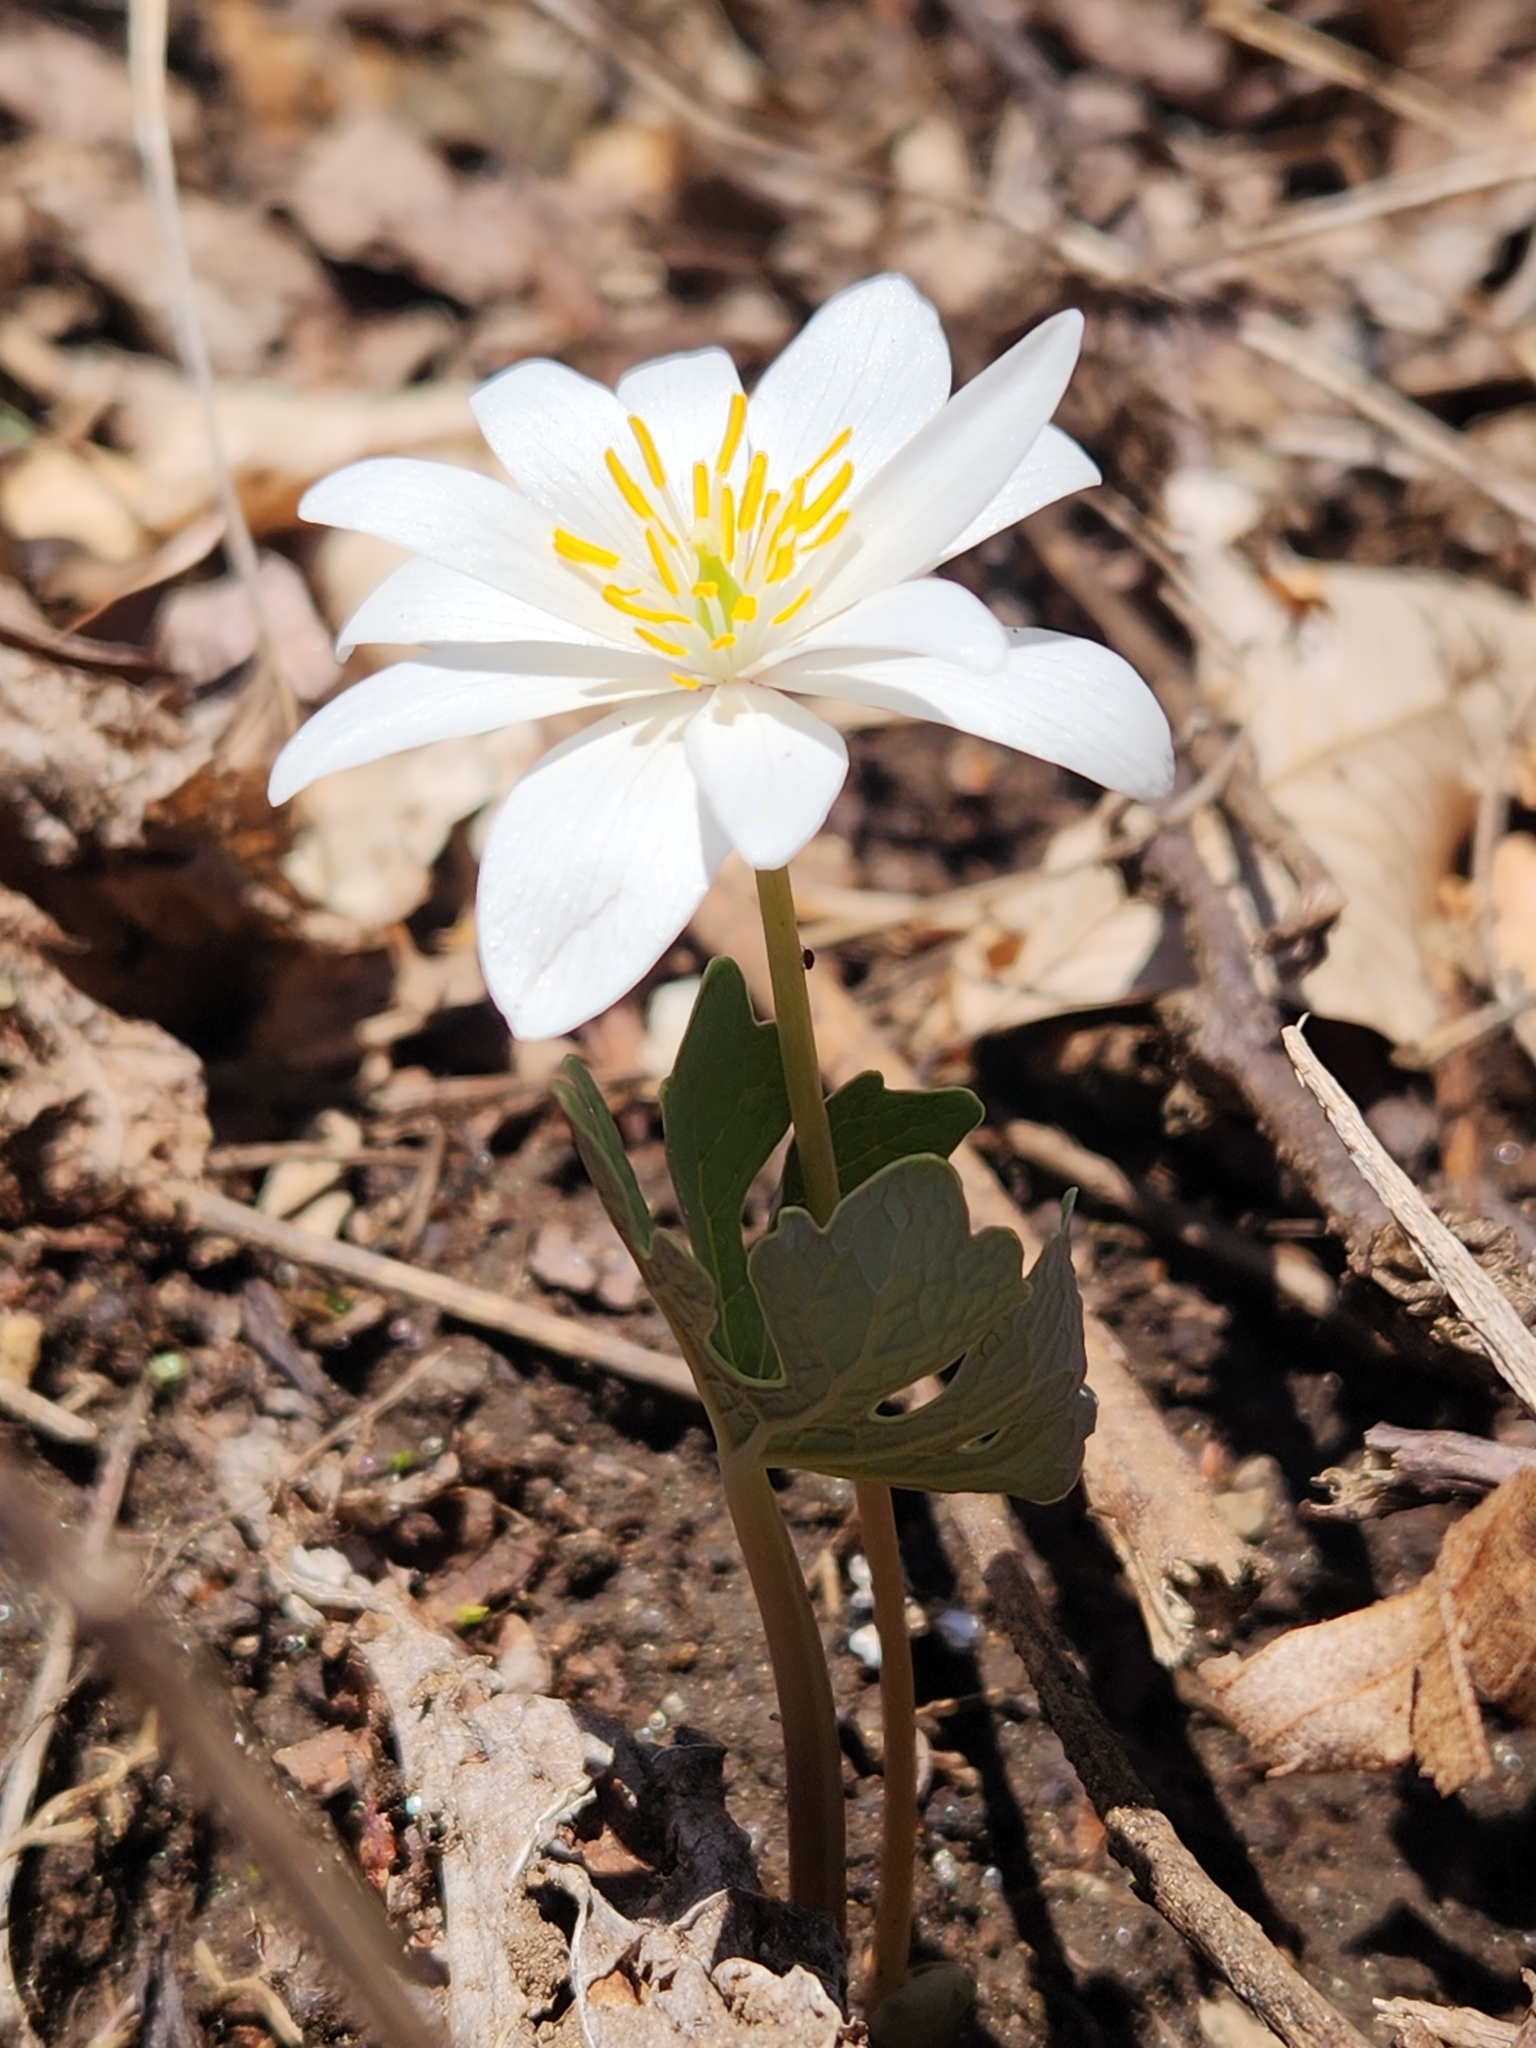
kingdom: Plantae
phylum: Tracheophyta
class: Magnoliopsida
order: Ranunculales
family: Papaveraceae
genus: Sanguinaria
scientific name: Sanguinaria canadensis
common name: Bloodroot
